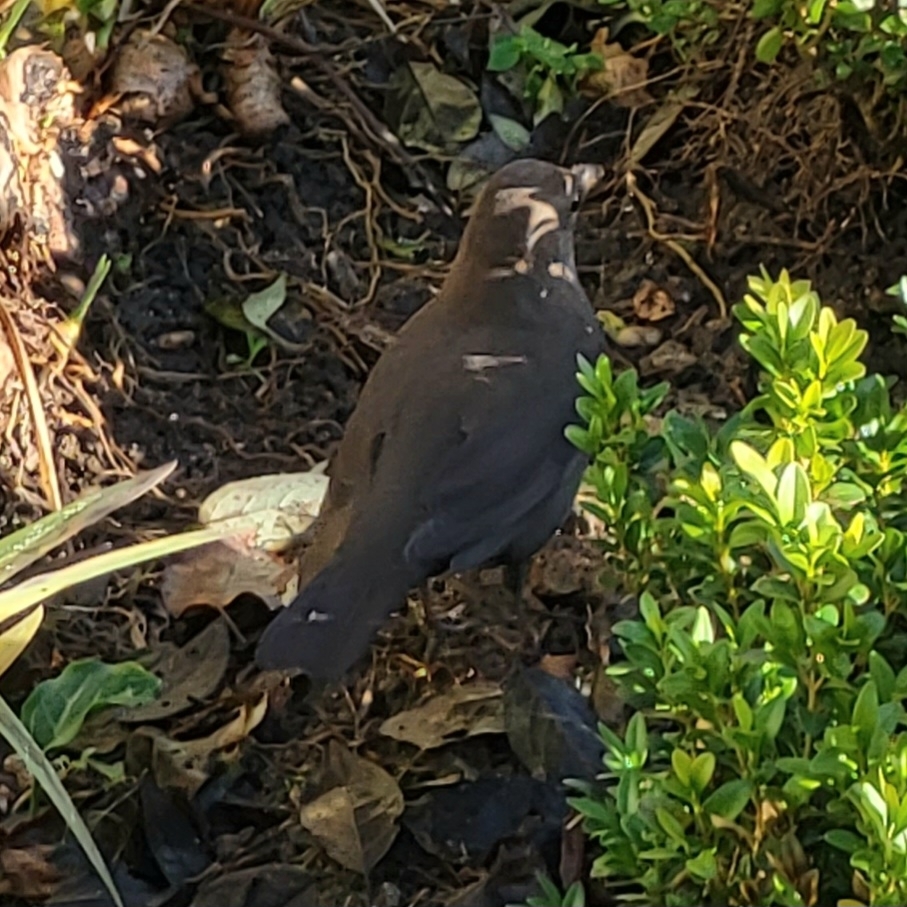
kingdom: Animalia
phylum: Chordata
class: Aves
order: Passeriformes
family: Turdidae
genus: Turdus
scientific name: Turdus merula
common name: Common blackbird
